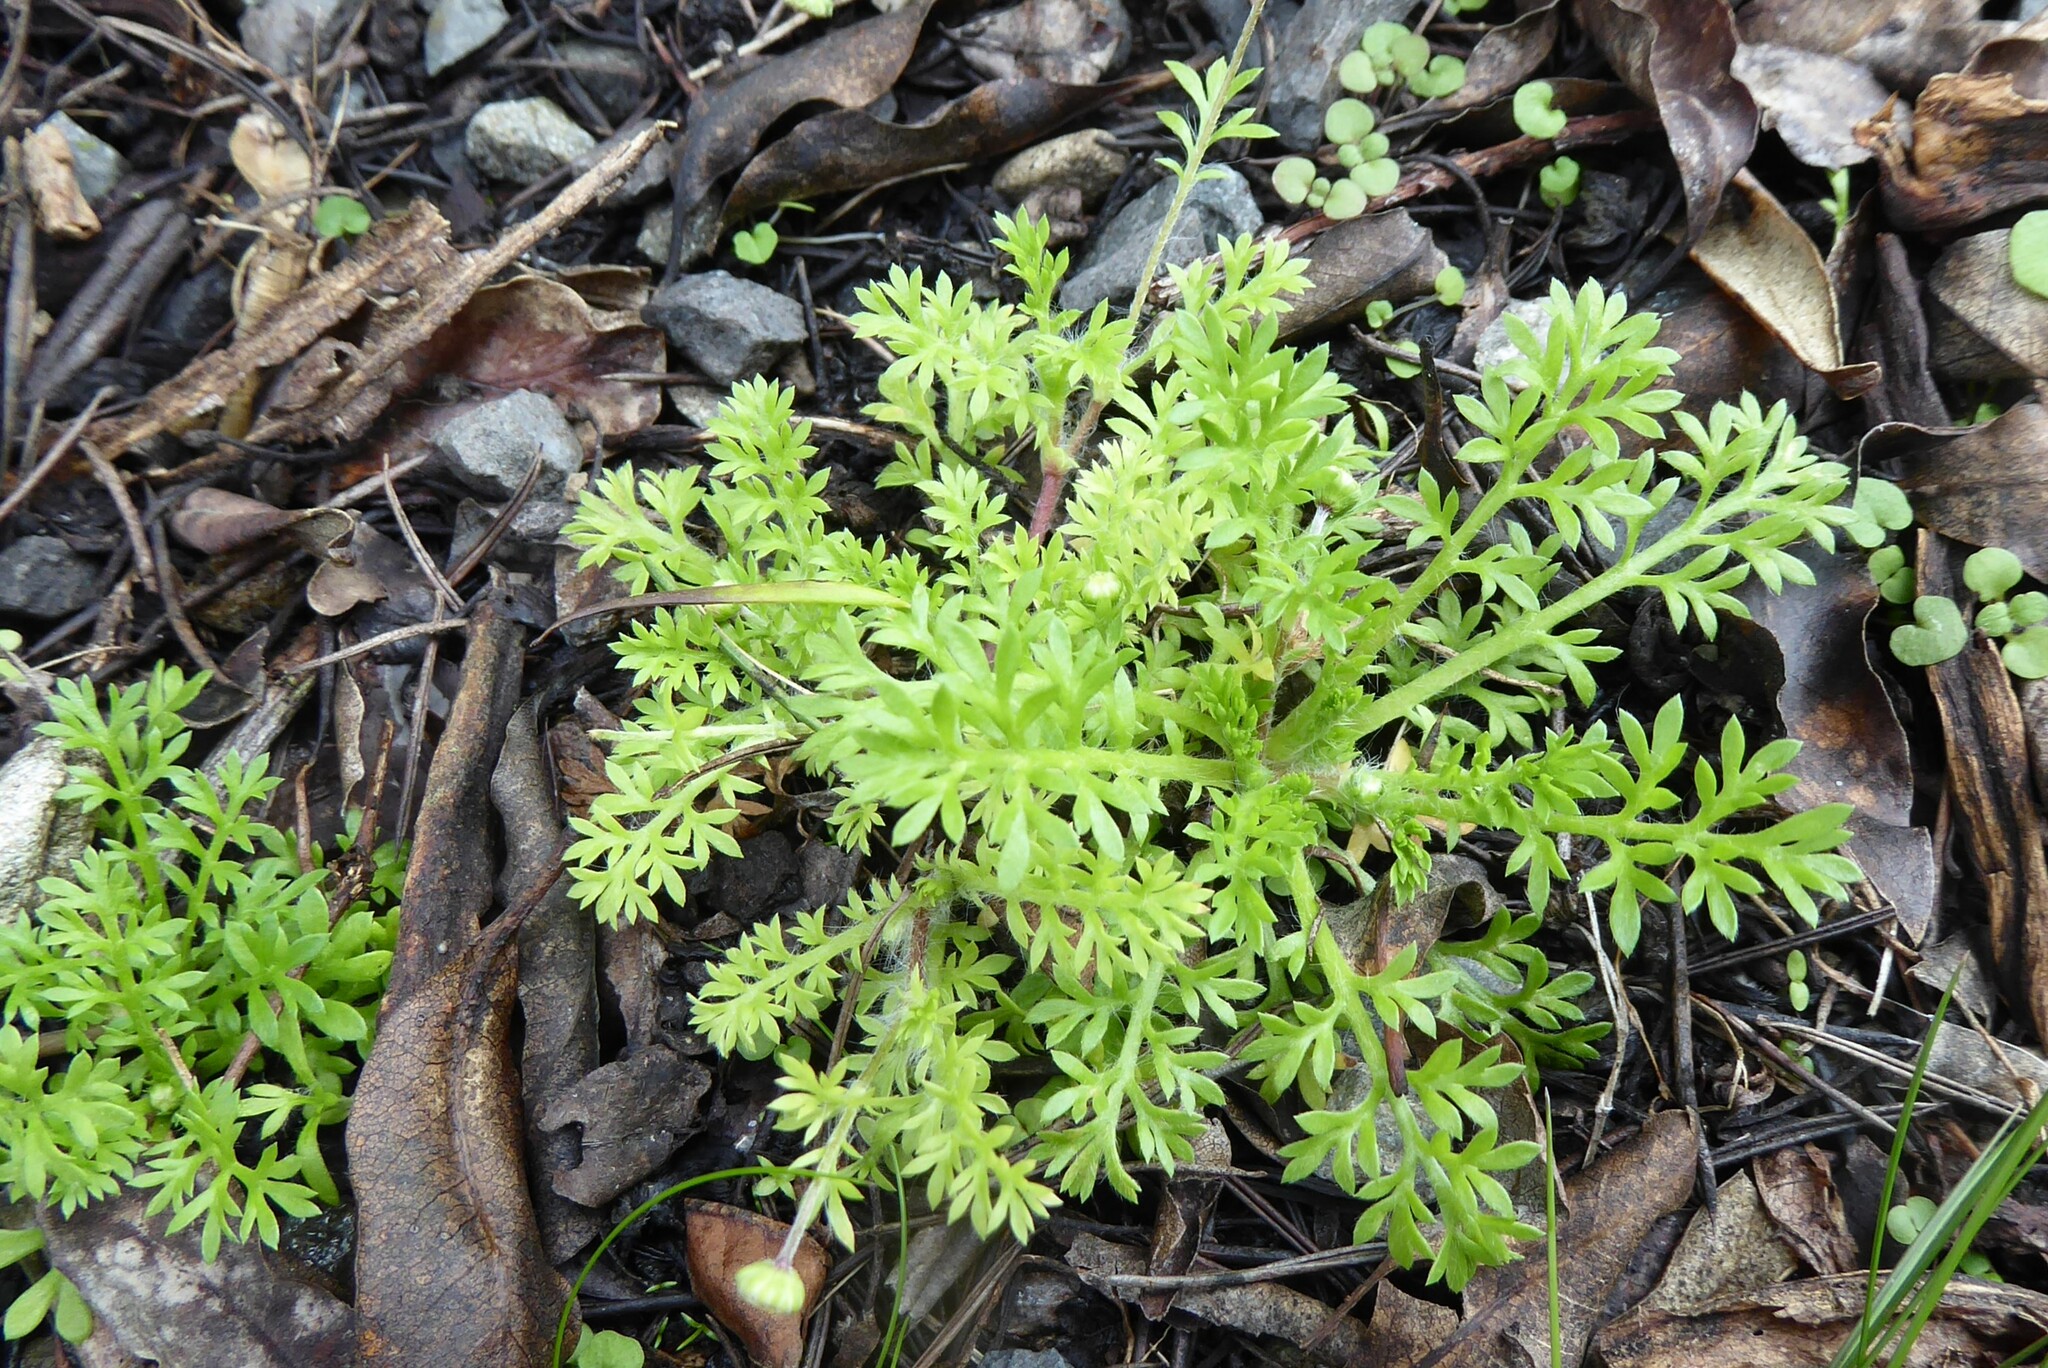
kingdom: Plantae
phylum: Tracheophyta
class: Magnoliopsida
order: Asterales
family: Asteraceae
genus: Cotula
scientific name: Cotula australis
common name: Australian waterbuttons
